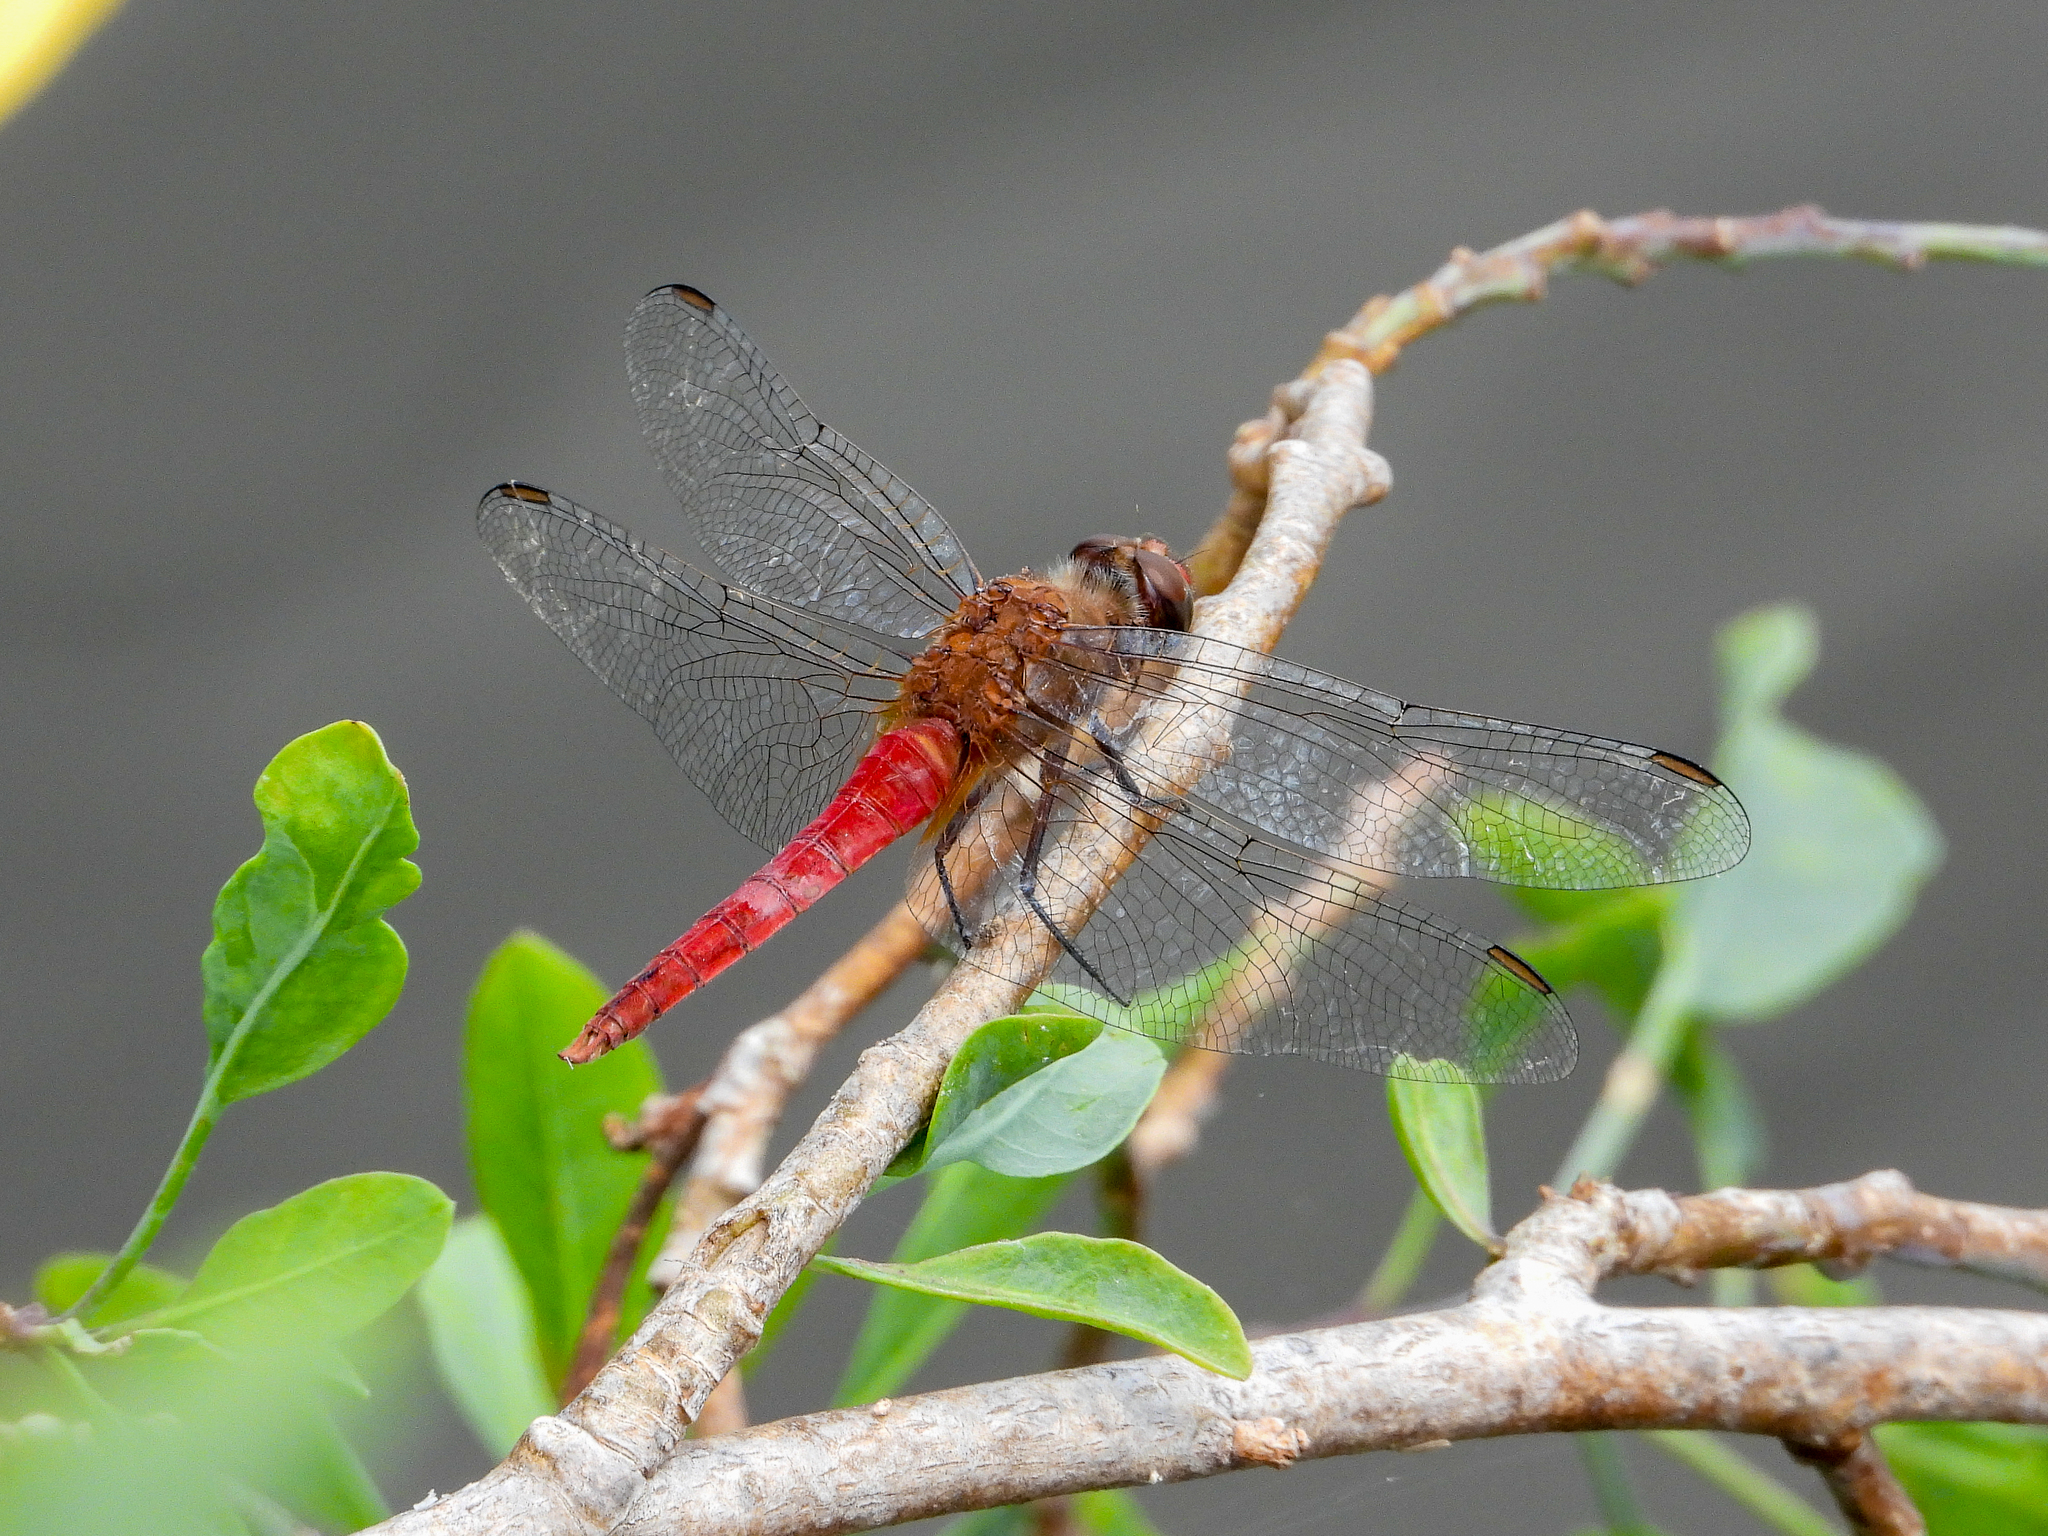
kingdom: Animalia
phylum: Arthropoda
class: Insecta
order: Odonata
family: Libellulidae
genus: Brachymesia
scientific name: Brachymesia furcata
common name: Red-taled pennant
